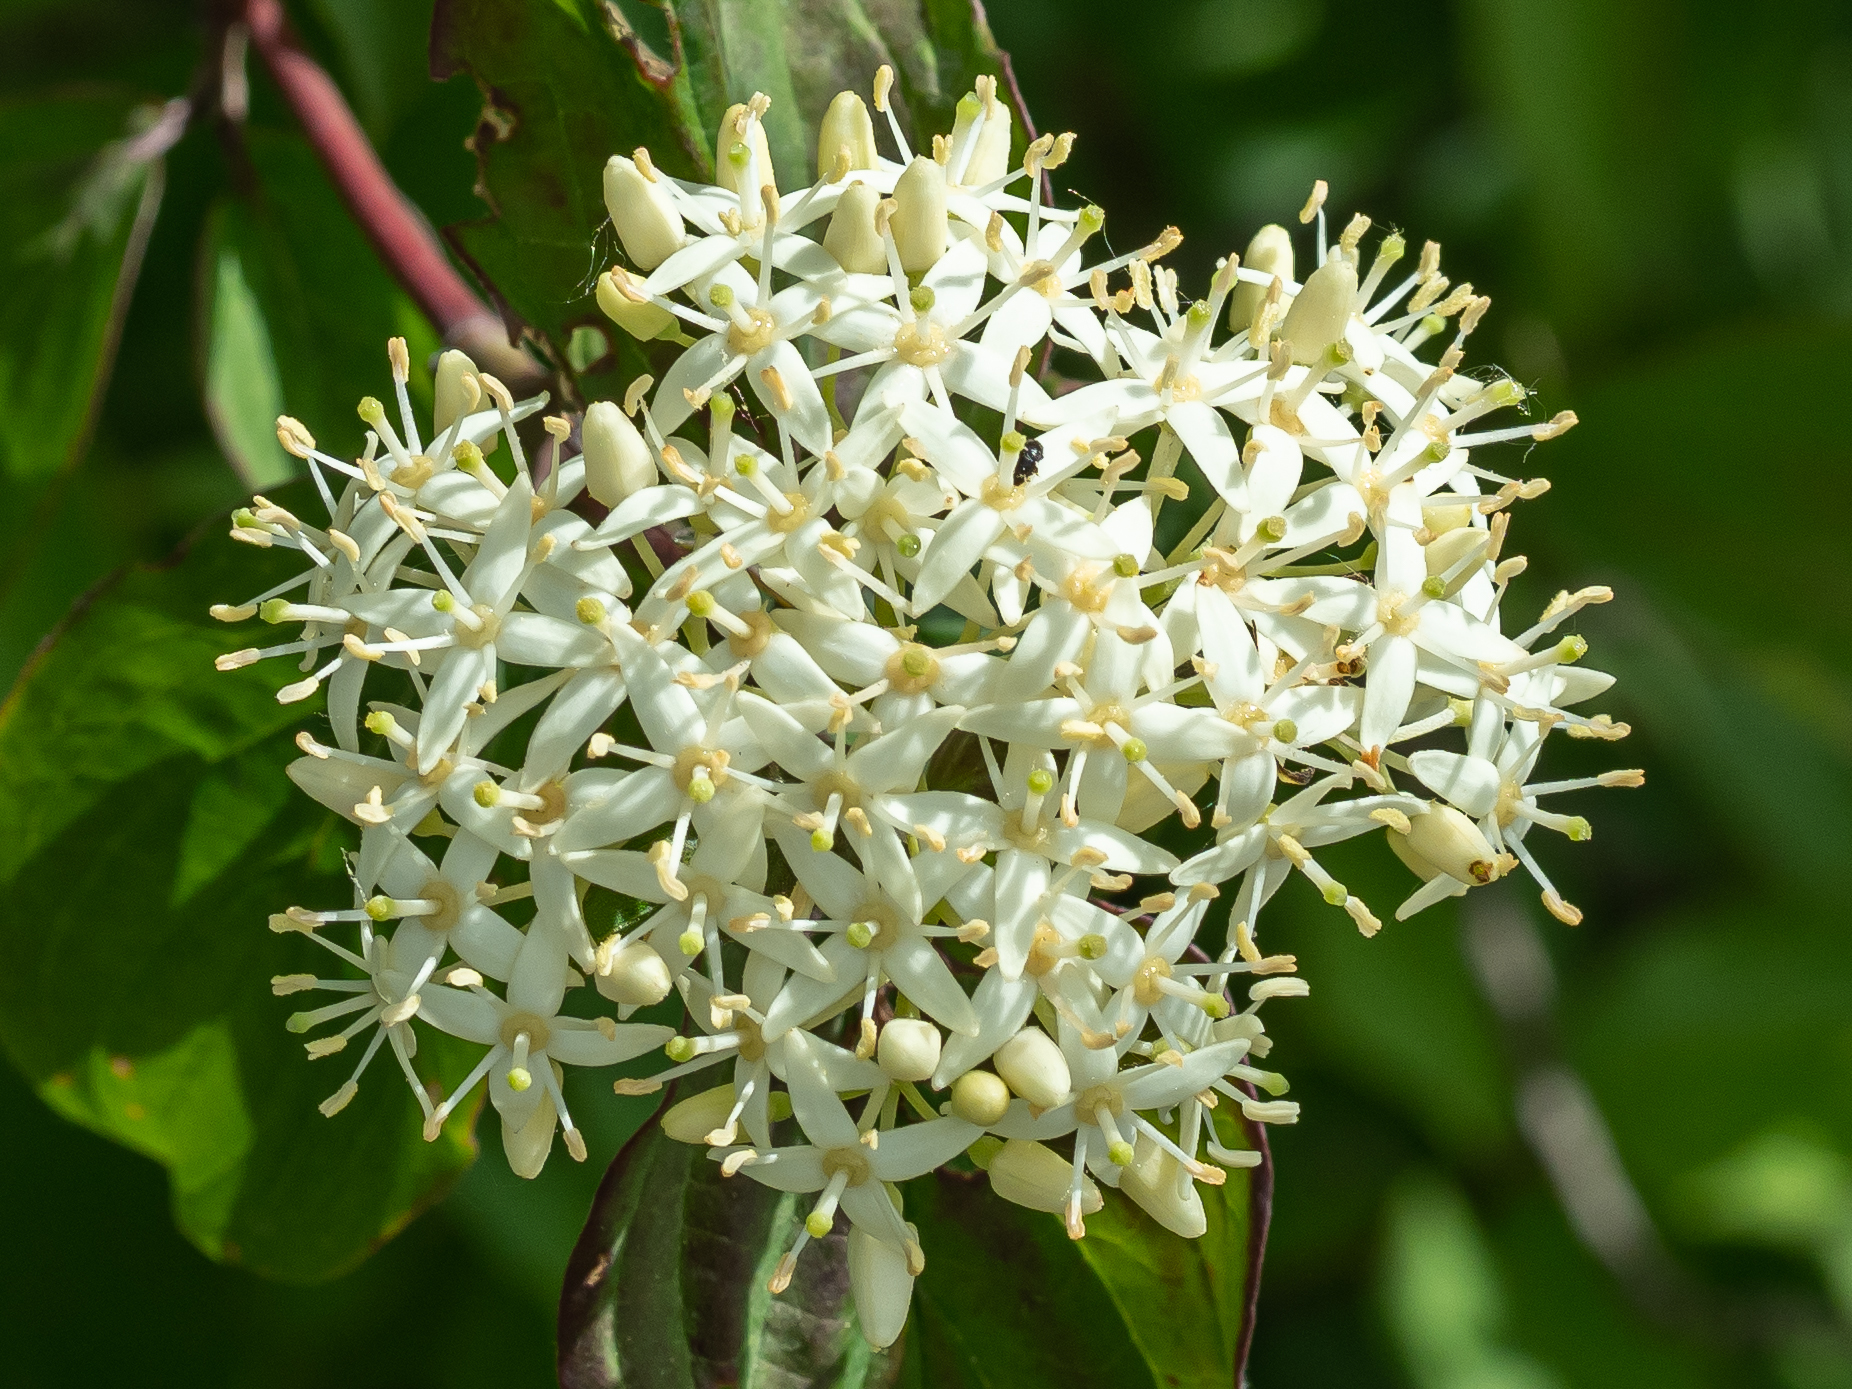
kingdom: Plantae
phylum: Tracheophyta
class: Magnoliopsida
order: Cornales
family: Cornaceae
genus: Cornus
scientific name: Cornus sanguinea
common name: Dogwood
